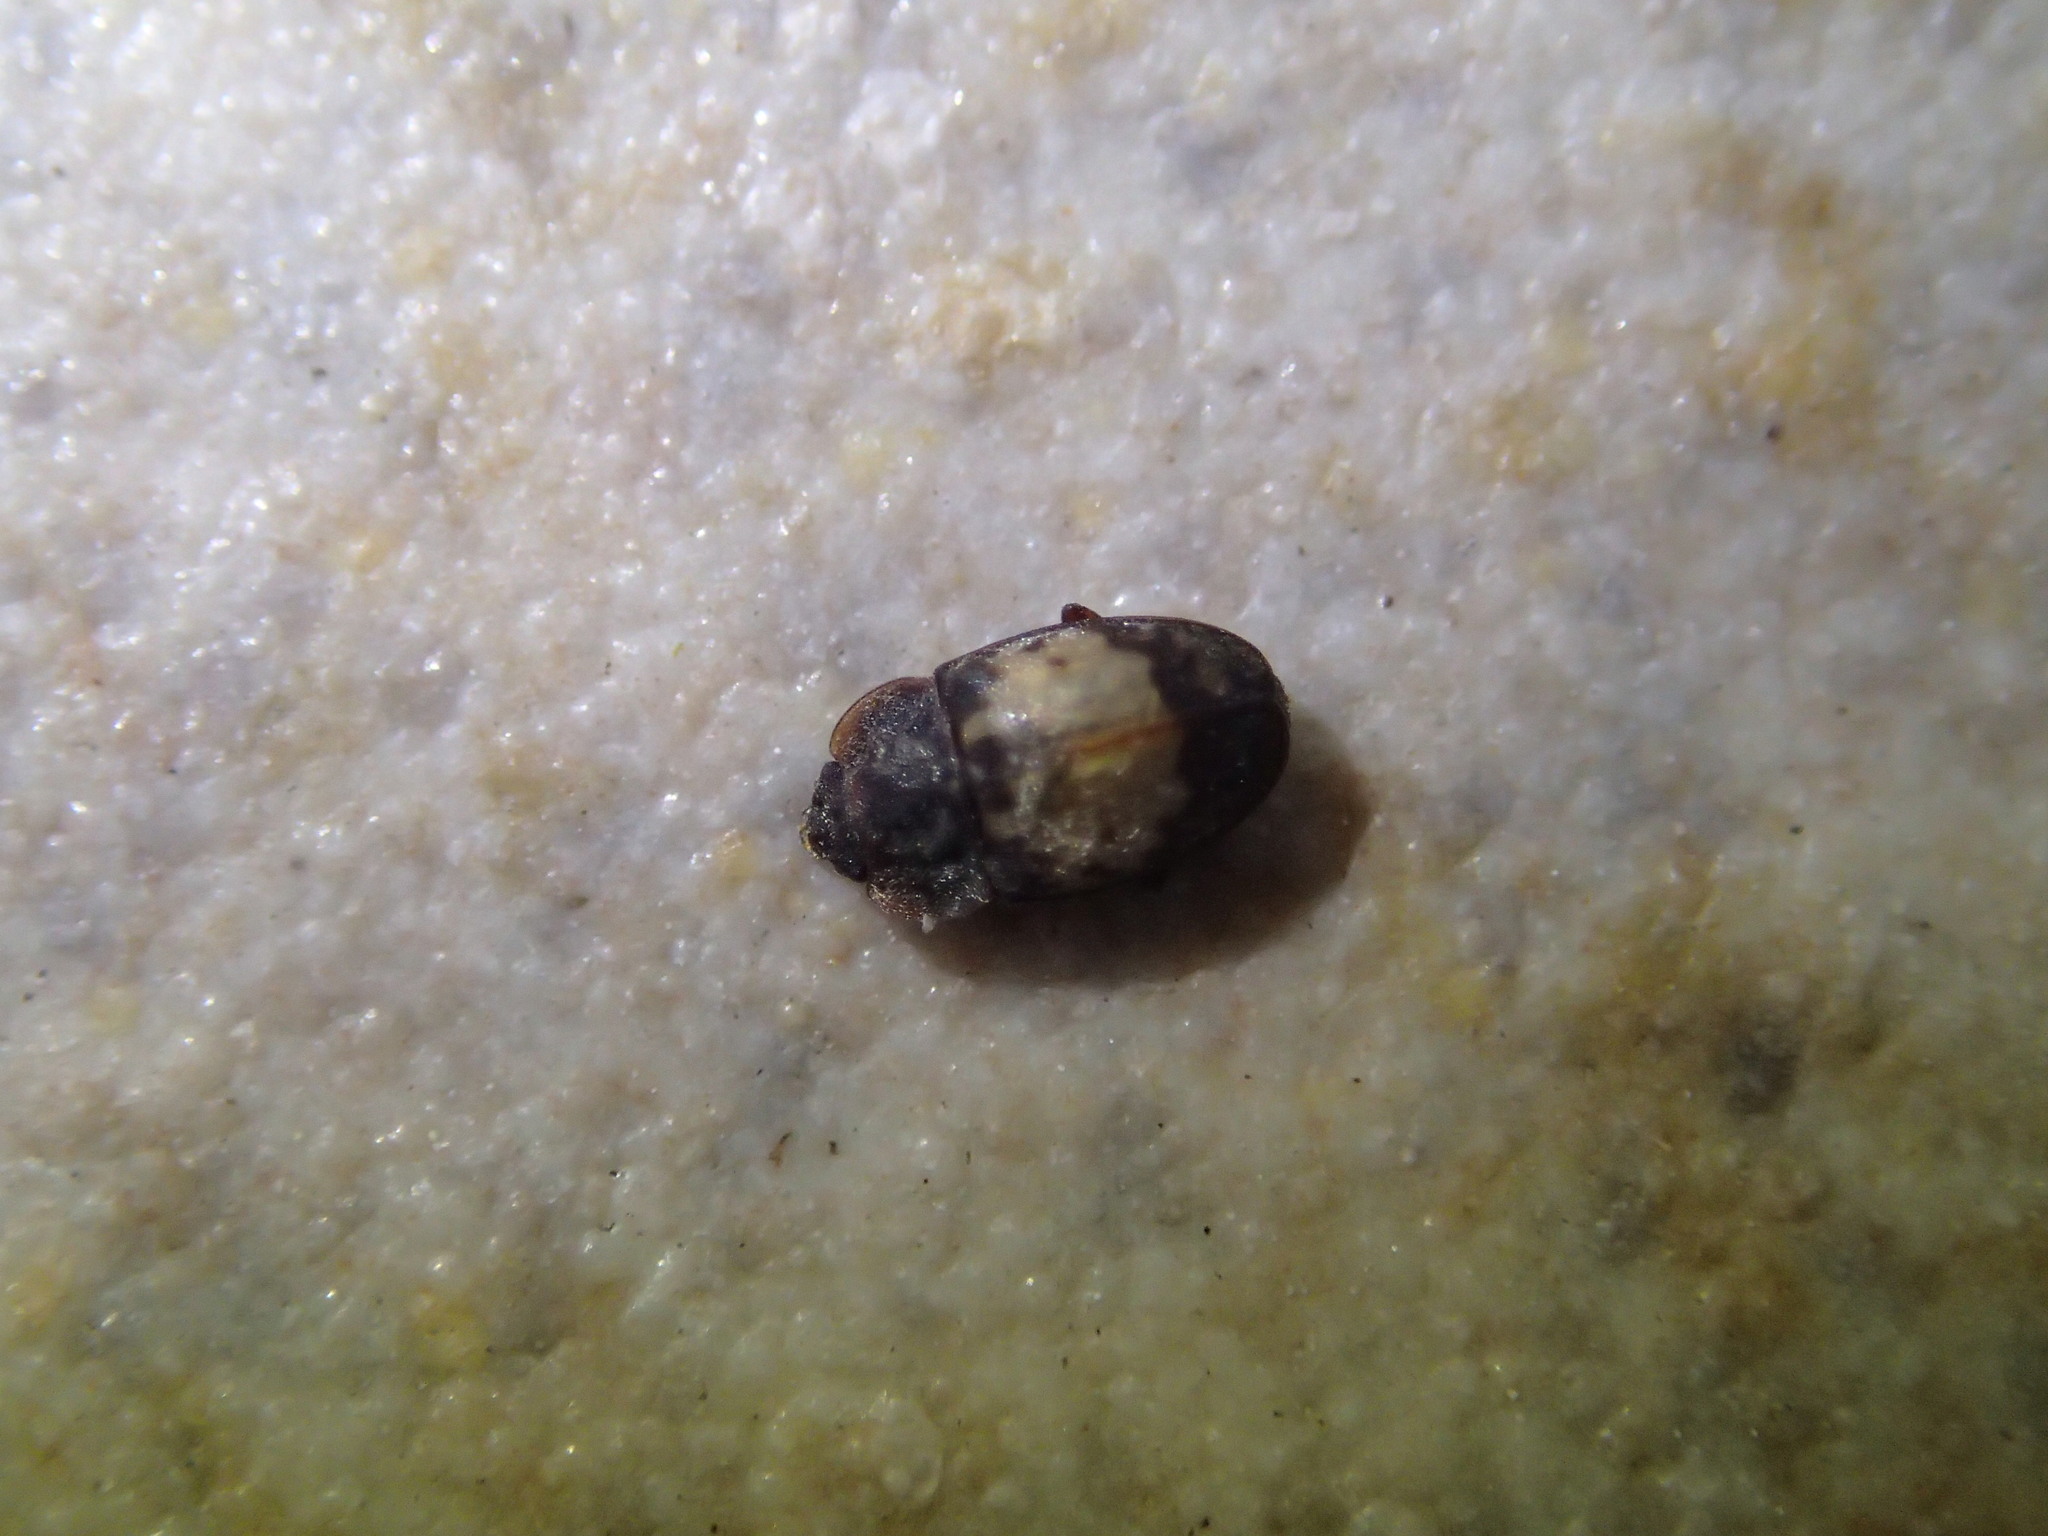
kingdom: Animalia
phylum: Arthropoda
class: Insecta
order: Coleoptera
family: Nitidulidae
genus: Omosita
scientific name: Omosita discoidea
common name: Sap beetle
